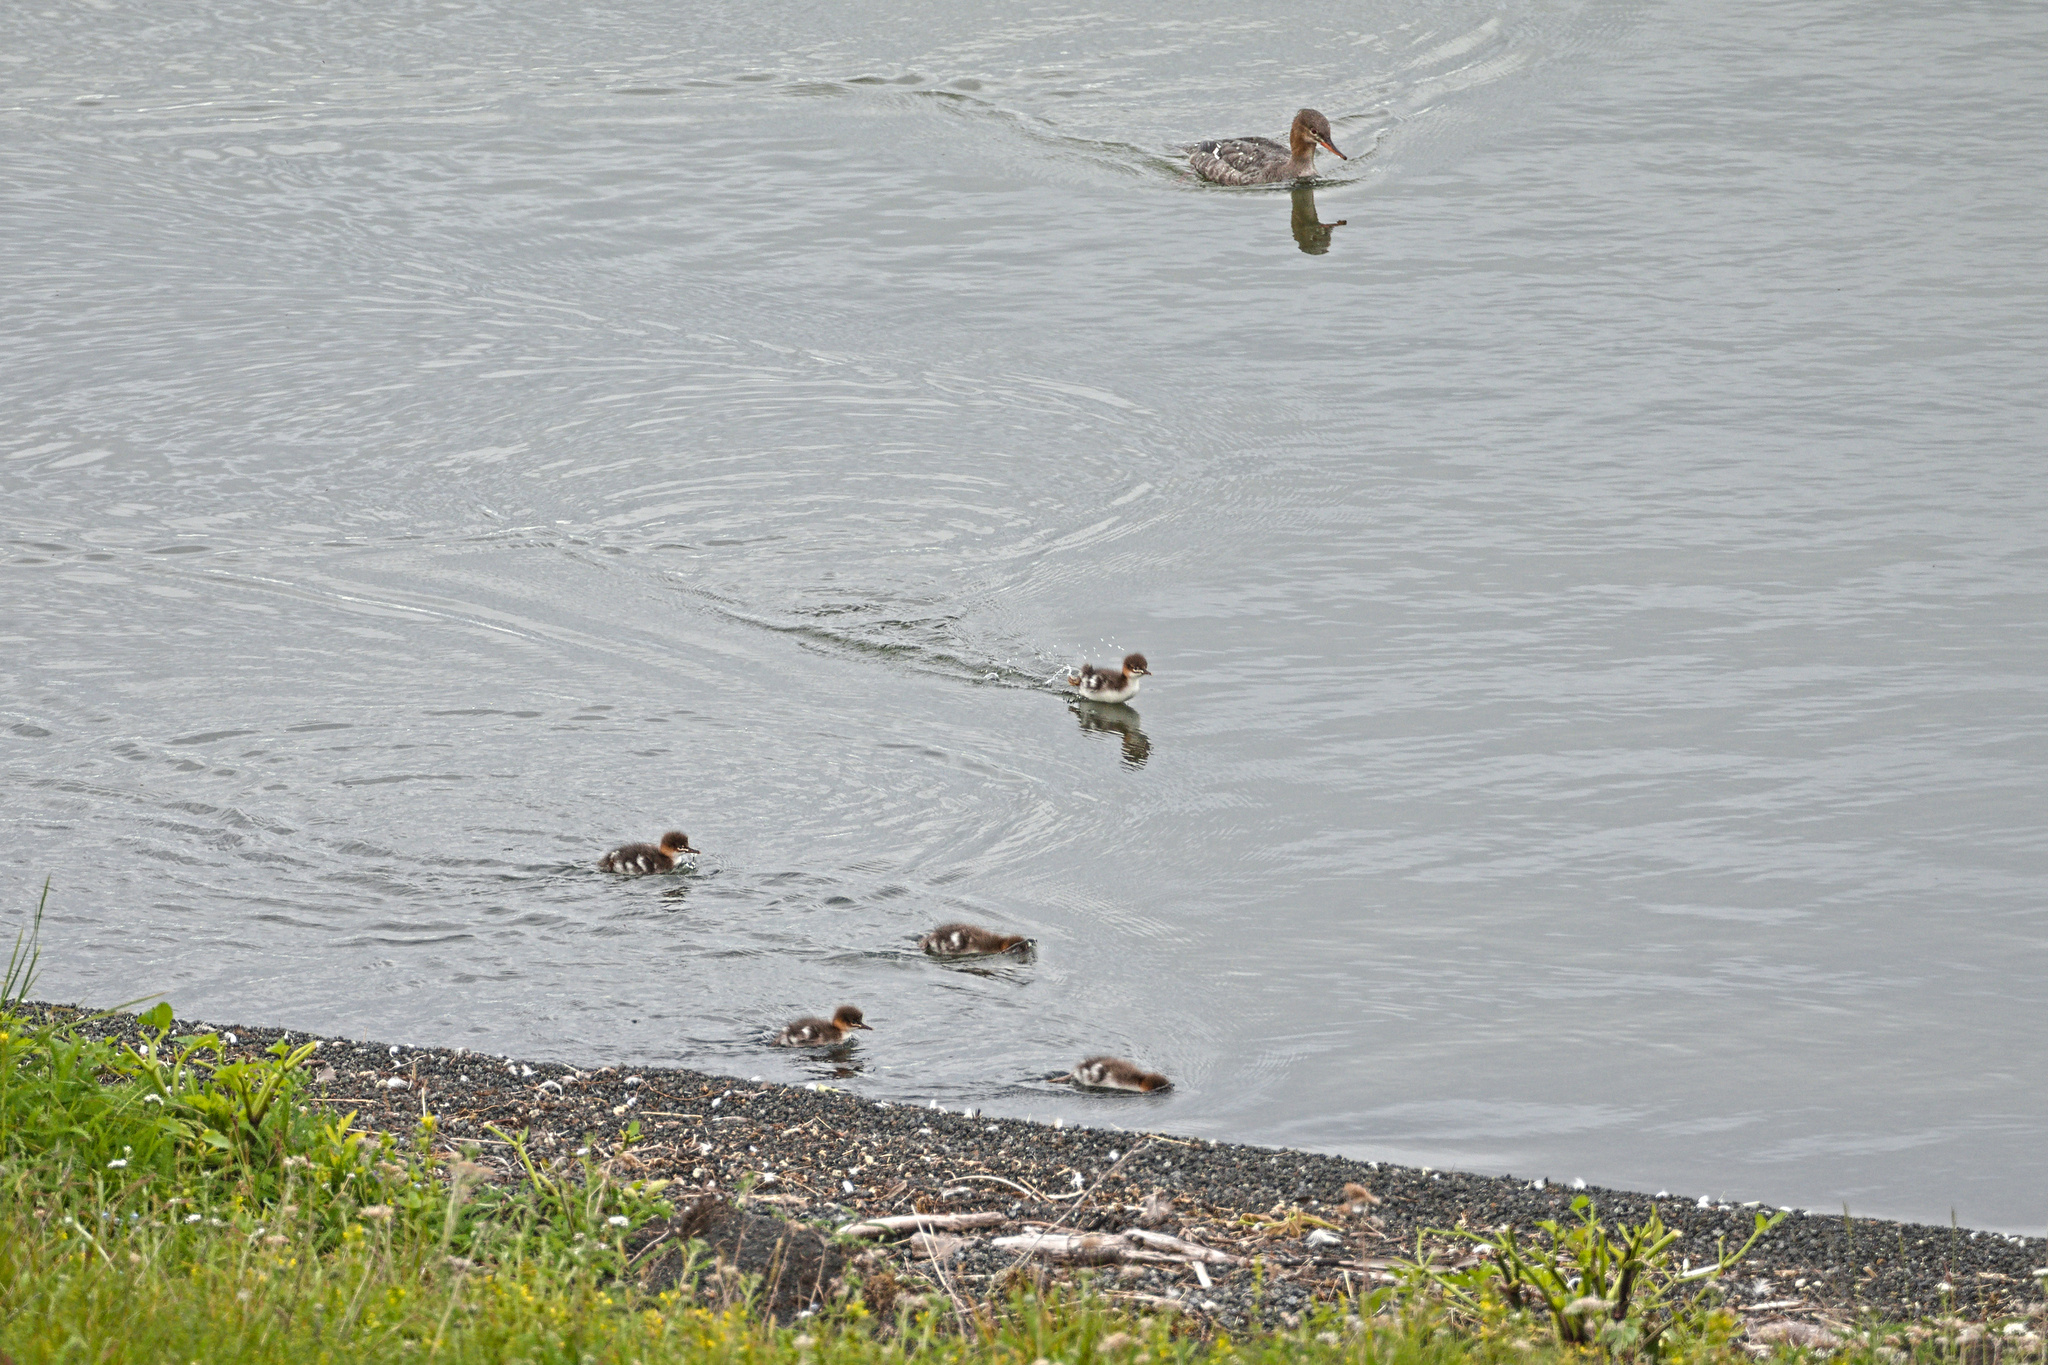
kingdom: Animalia
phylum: Chordata
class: Aves
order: Anseriformes
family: Anatidae
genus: Mergus
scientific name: Mergus serrator
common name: Red-breasted merganser
